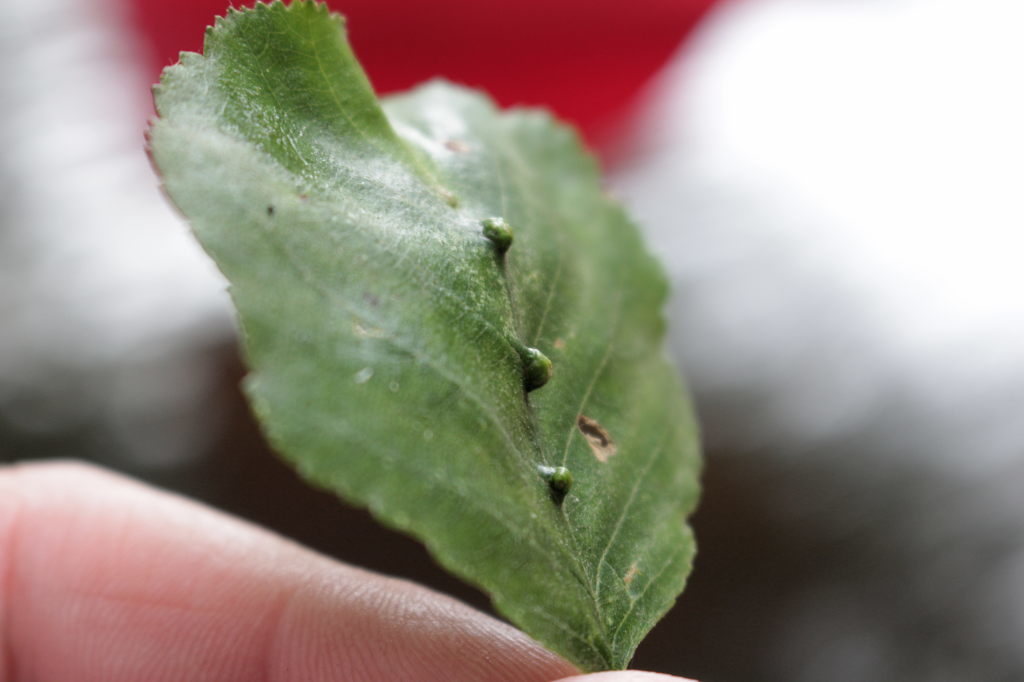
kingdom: Animalia
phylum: Arthropoda
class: Arachnida
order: Trombidiformes
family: Eriophyidae
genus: Eriophyes
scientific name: Eriophyes inangulis
